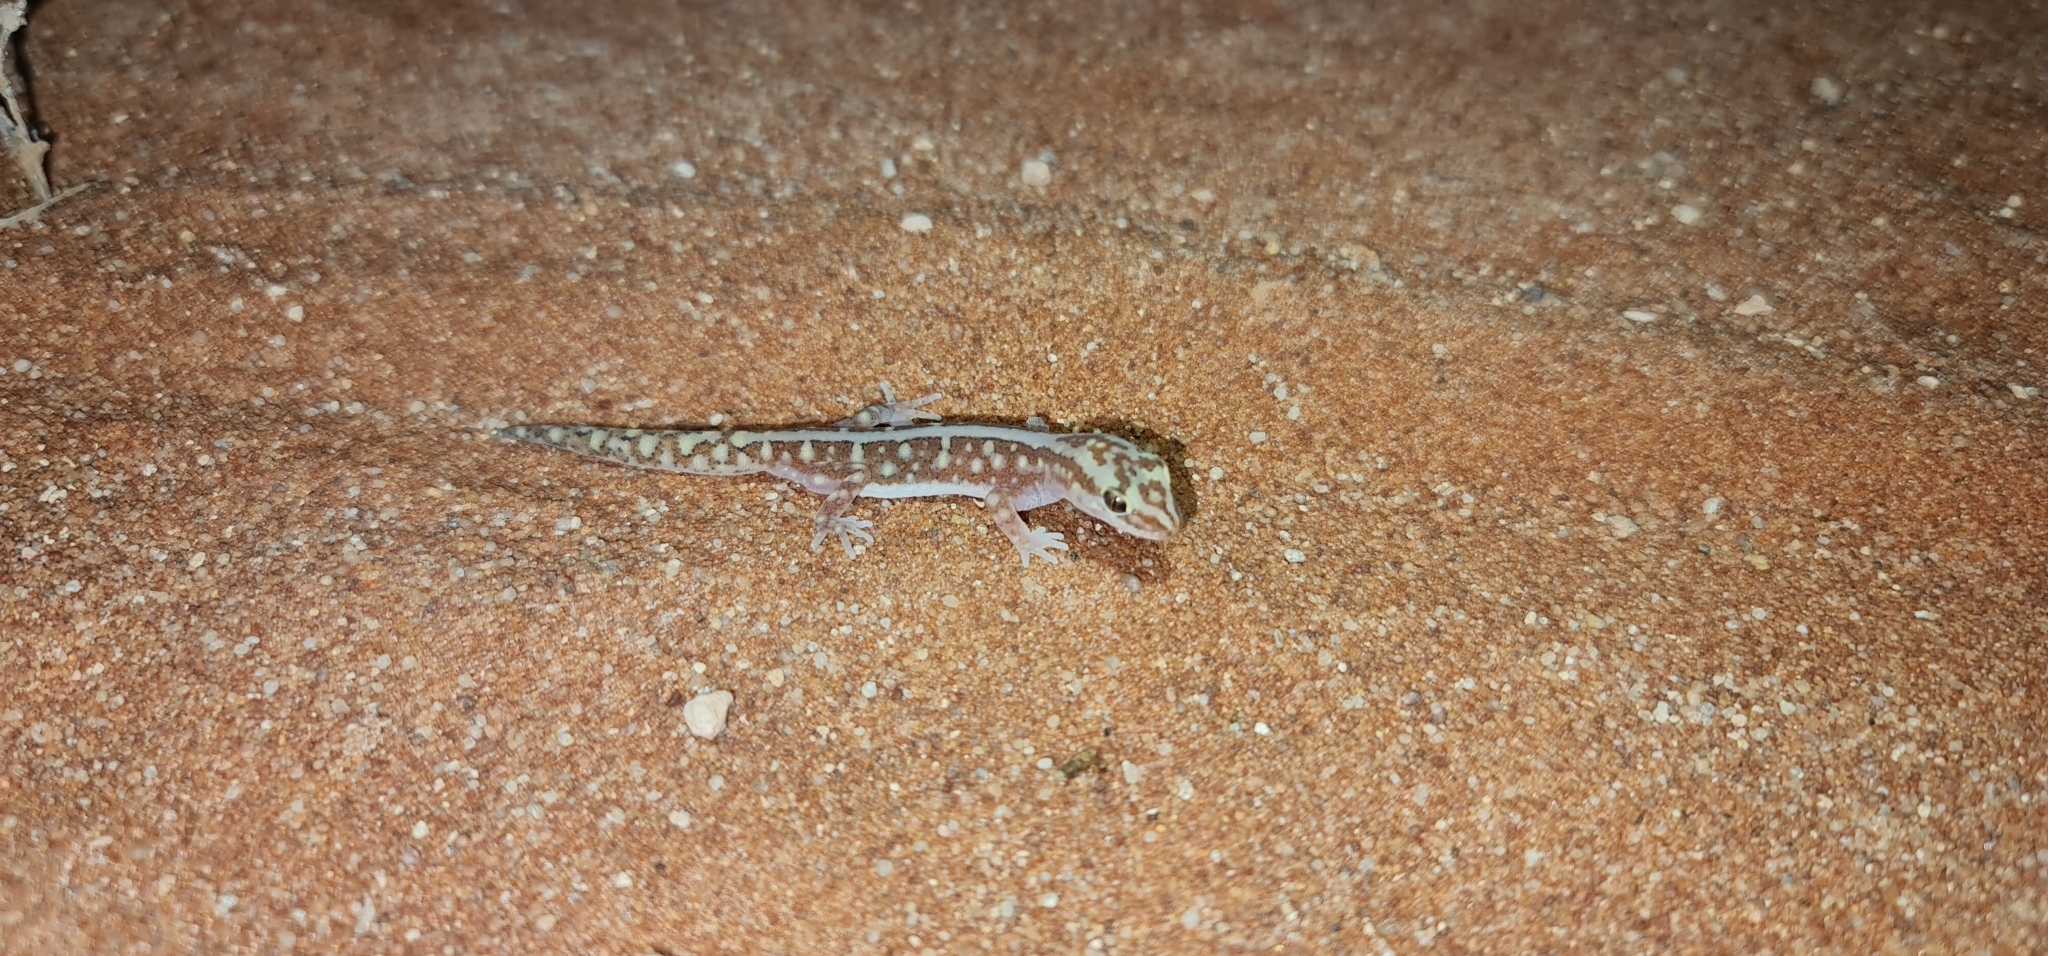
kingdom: Animalia
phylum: Chordata
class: Squamata
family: Diplodactylidae
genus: Lucasium
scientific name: Lucasium microplax
